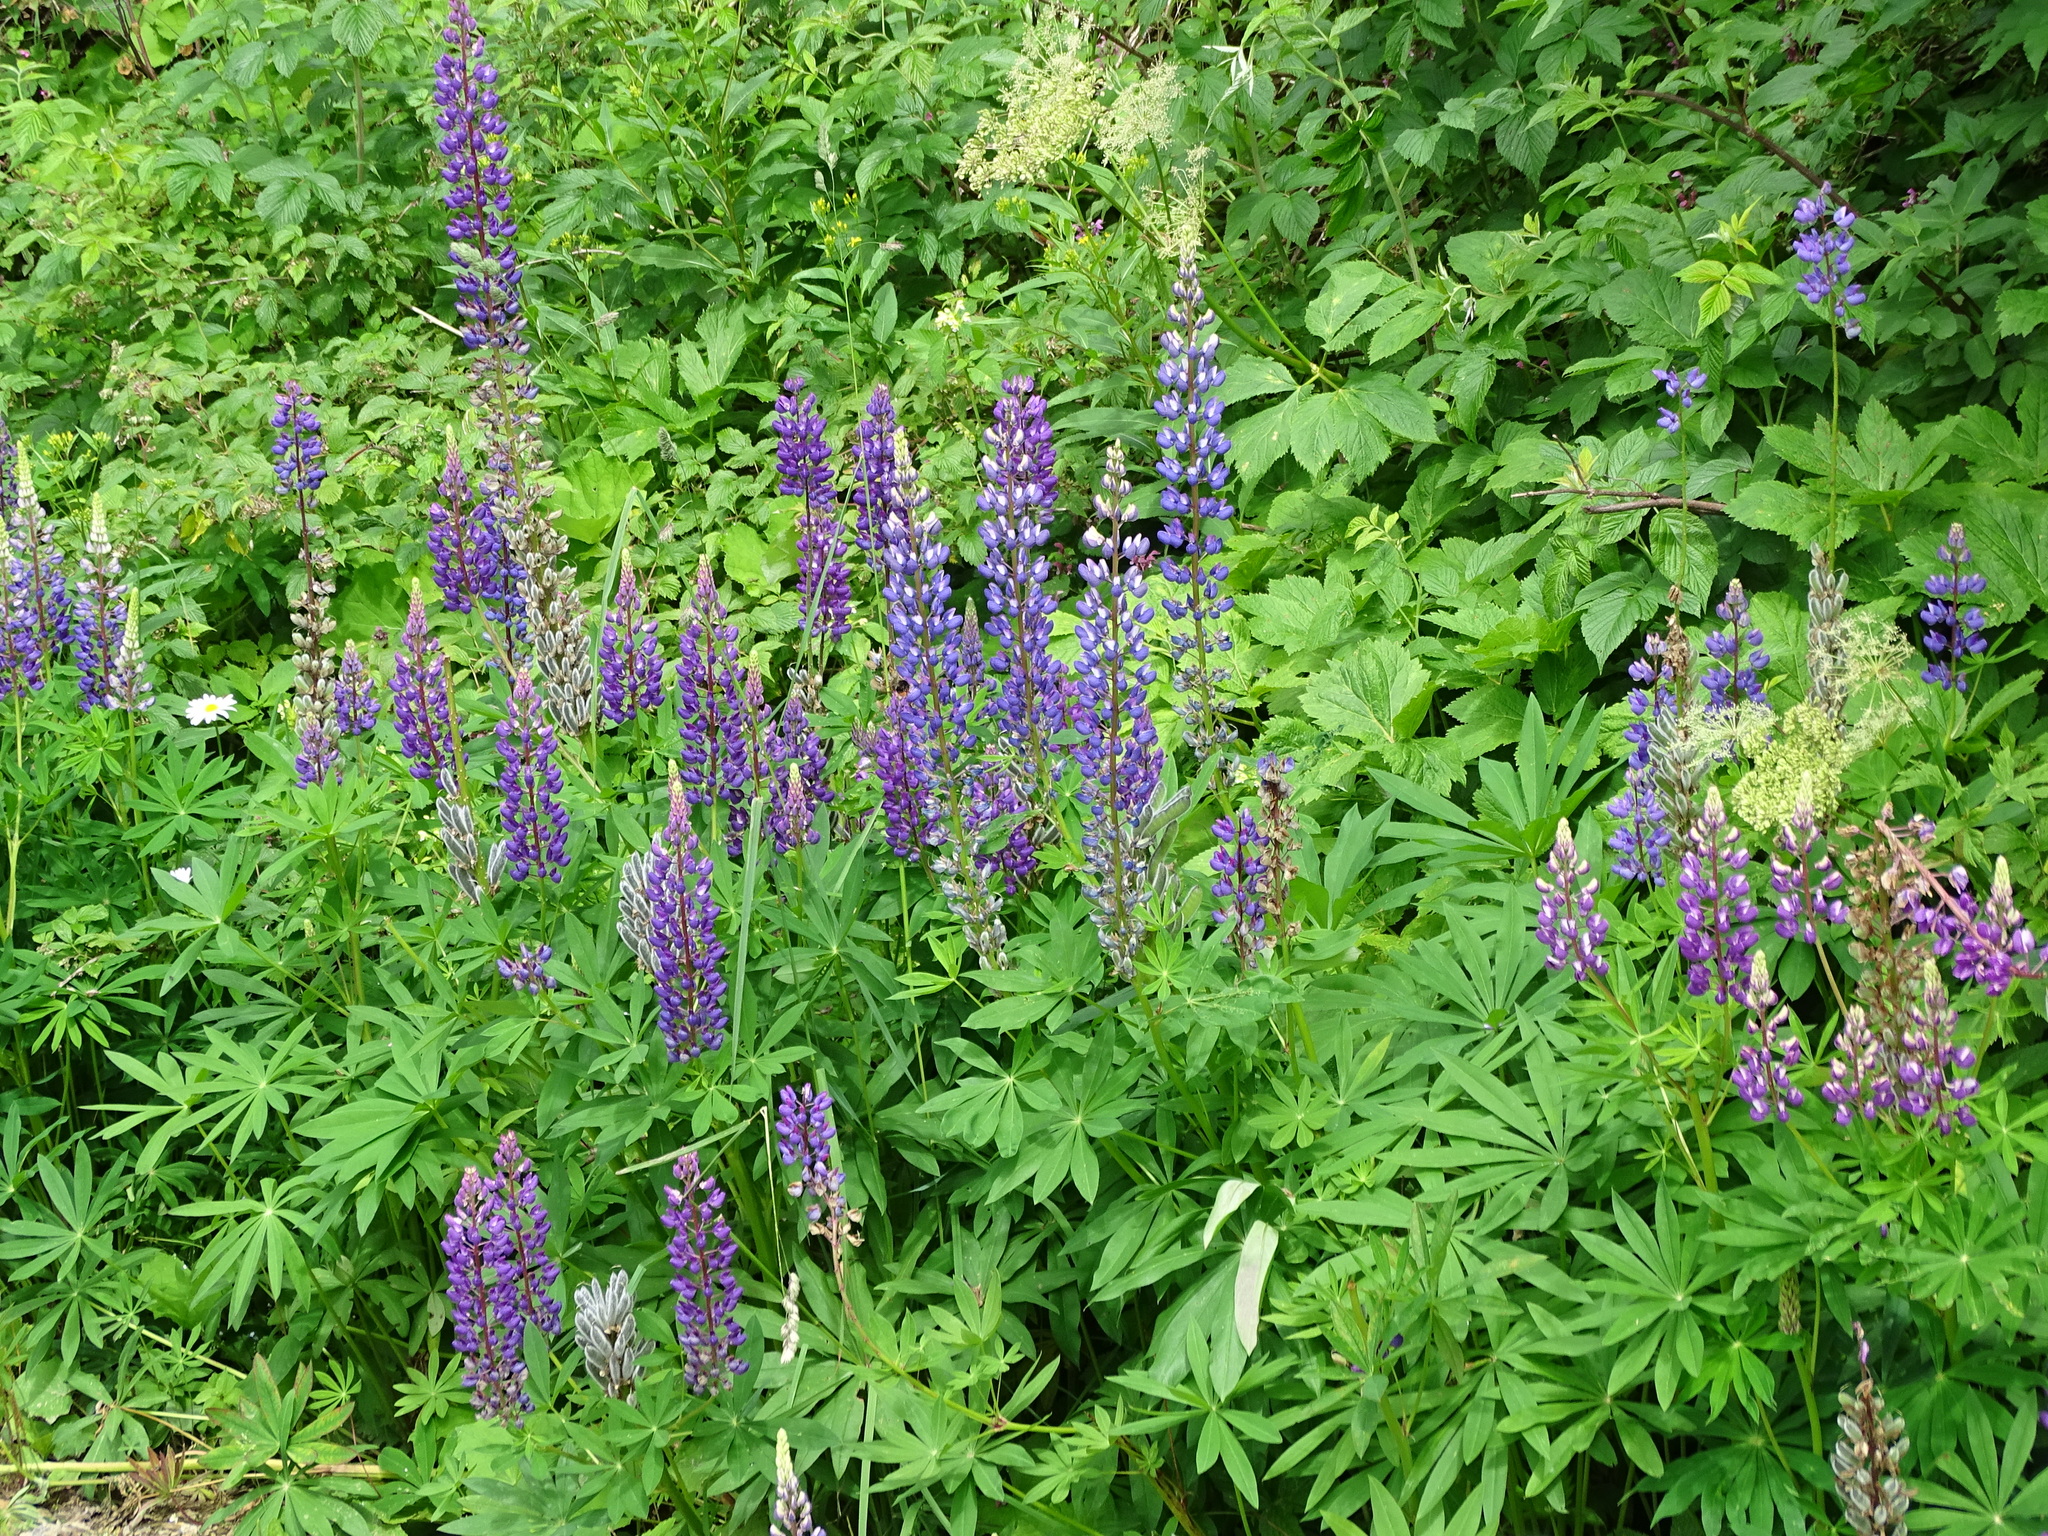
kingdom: Plantae
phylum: Tracheophyta
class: Magnoliopsida
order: Fabales
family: Fabaceae
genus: Lupinus
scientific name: Lupinus polyphyllus
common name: Garden lupin
